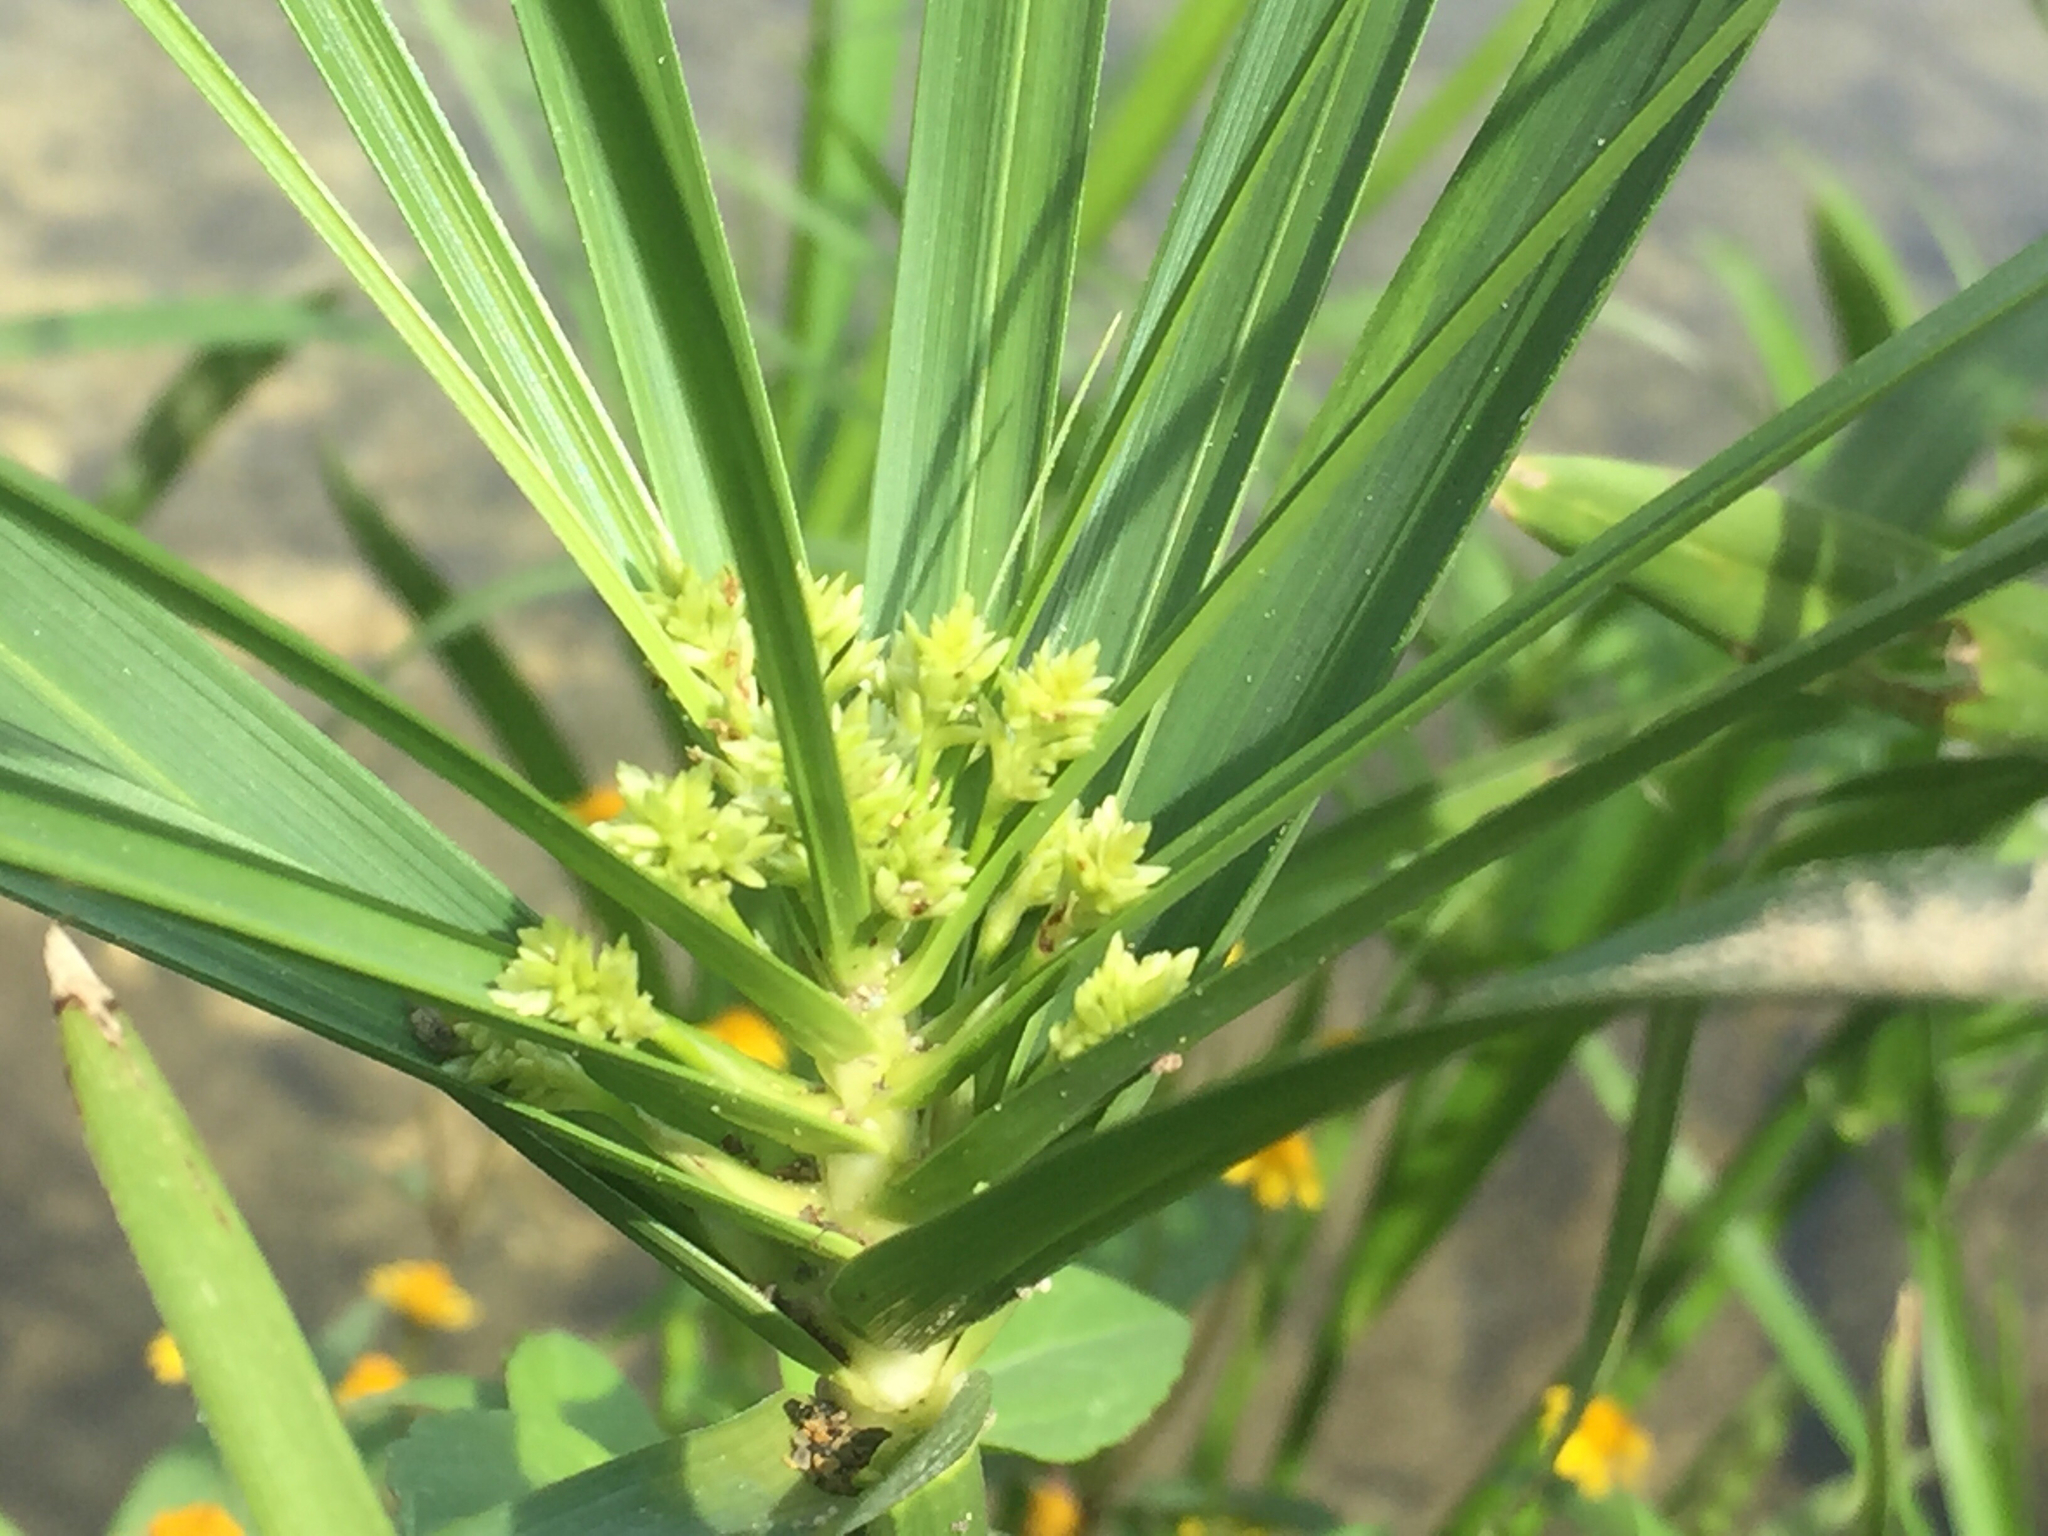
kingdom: Plantae
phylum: Tracheophyta
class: Liliopsida
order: Poales
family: Cyperaceae
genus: Cyperus
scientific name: Cyperus alternifolius
